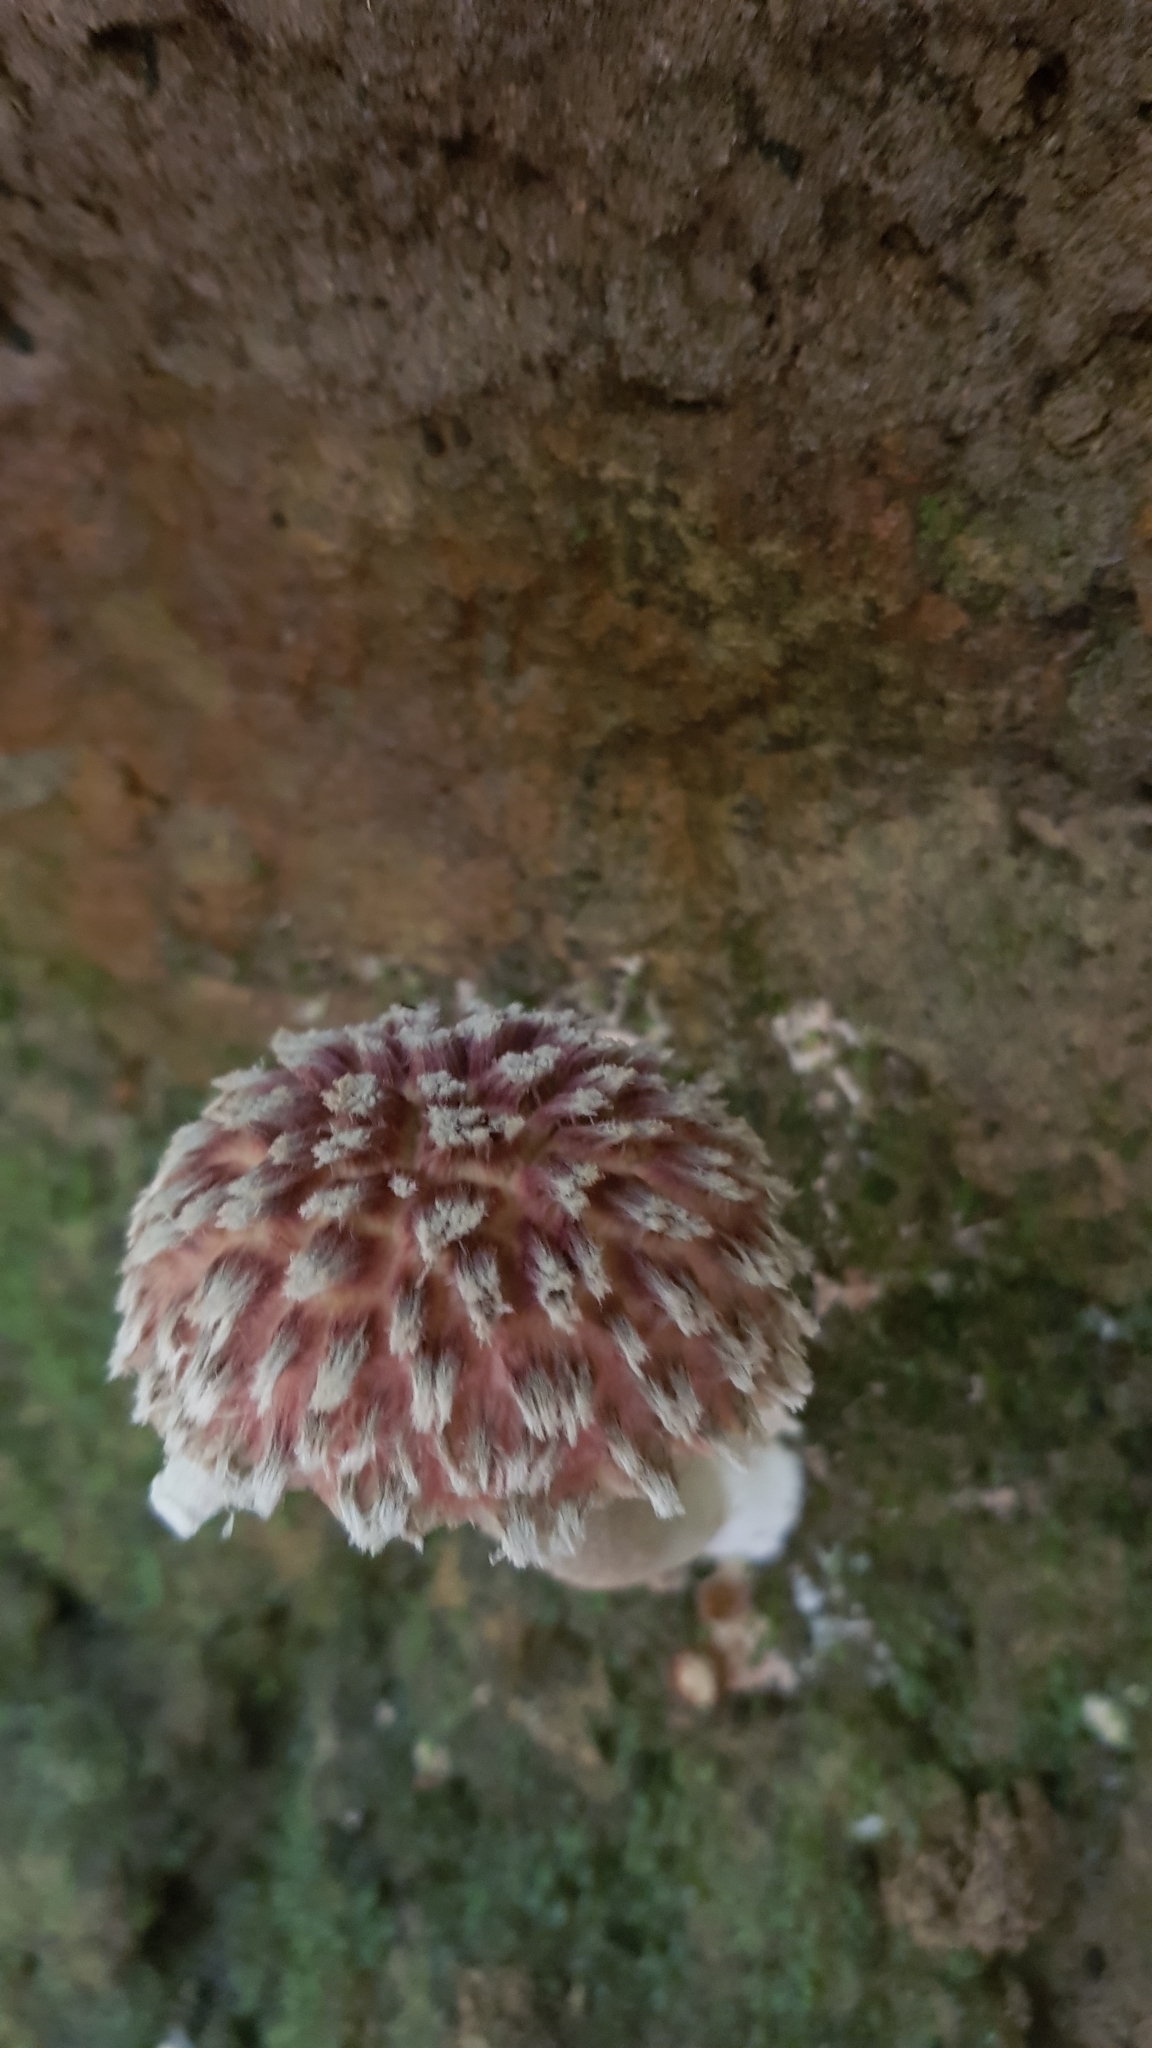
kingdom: Fungi
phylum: Basidiomycota
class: Agaricomycetes
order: Boletales
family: Boletaceae
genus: Boletellus
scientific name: Boletellus deceptivus
